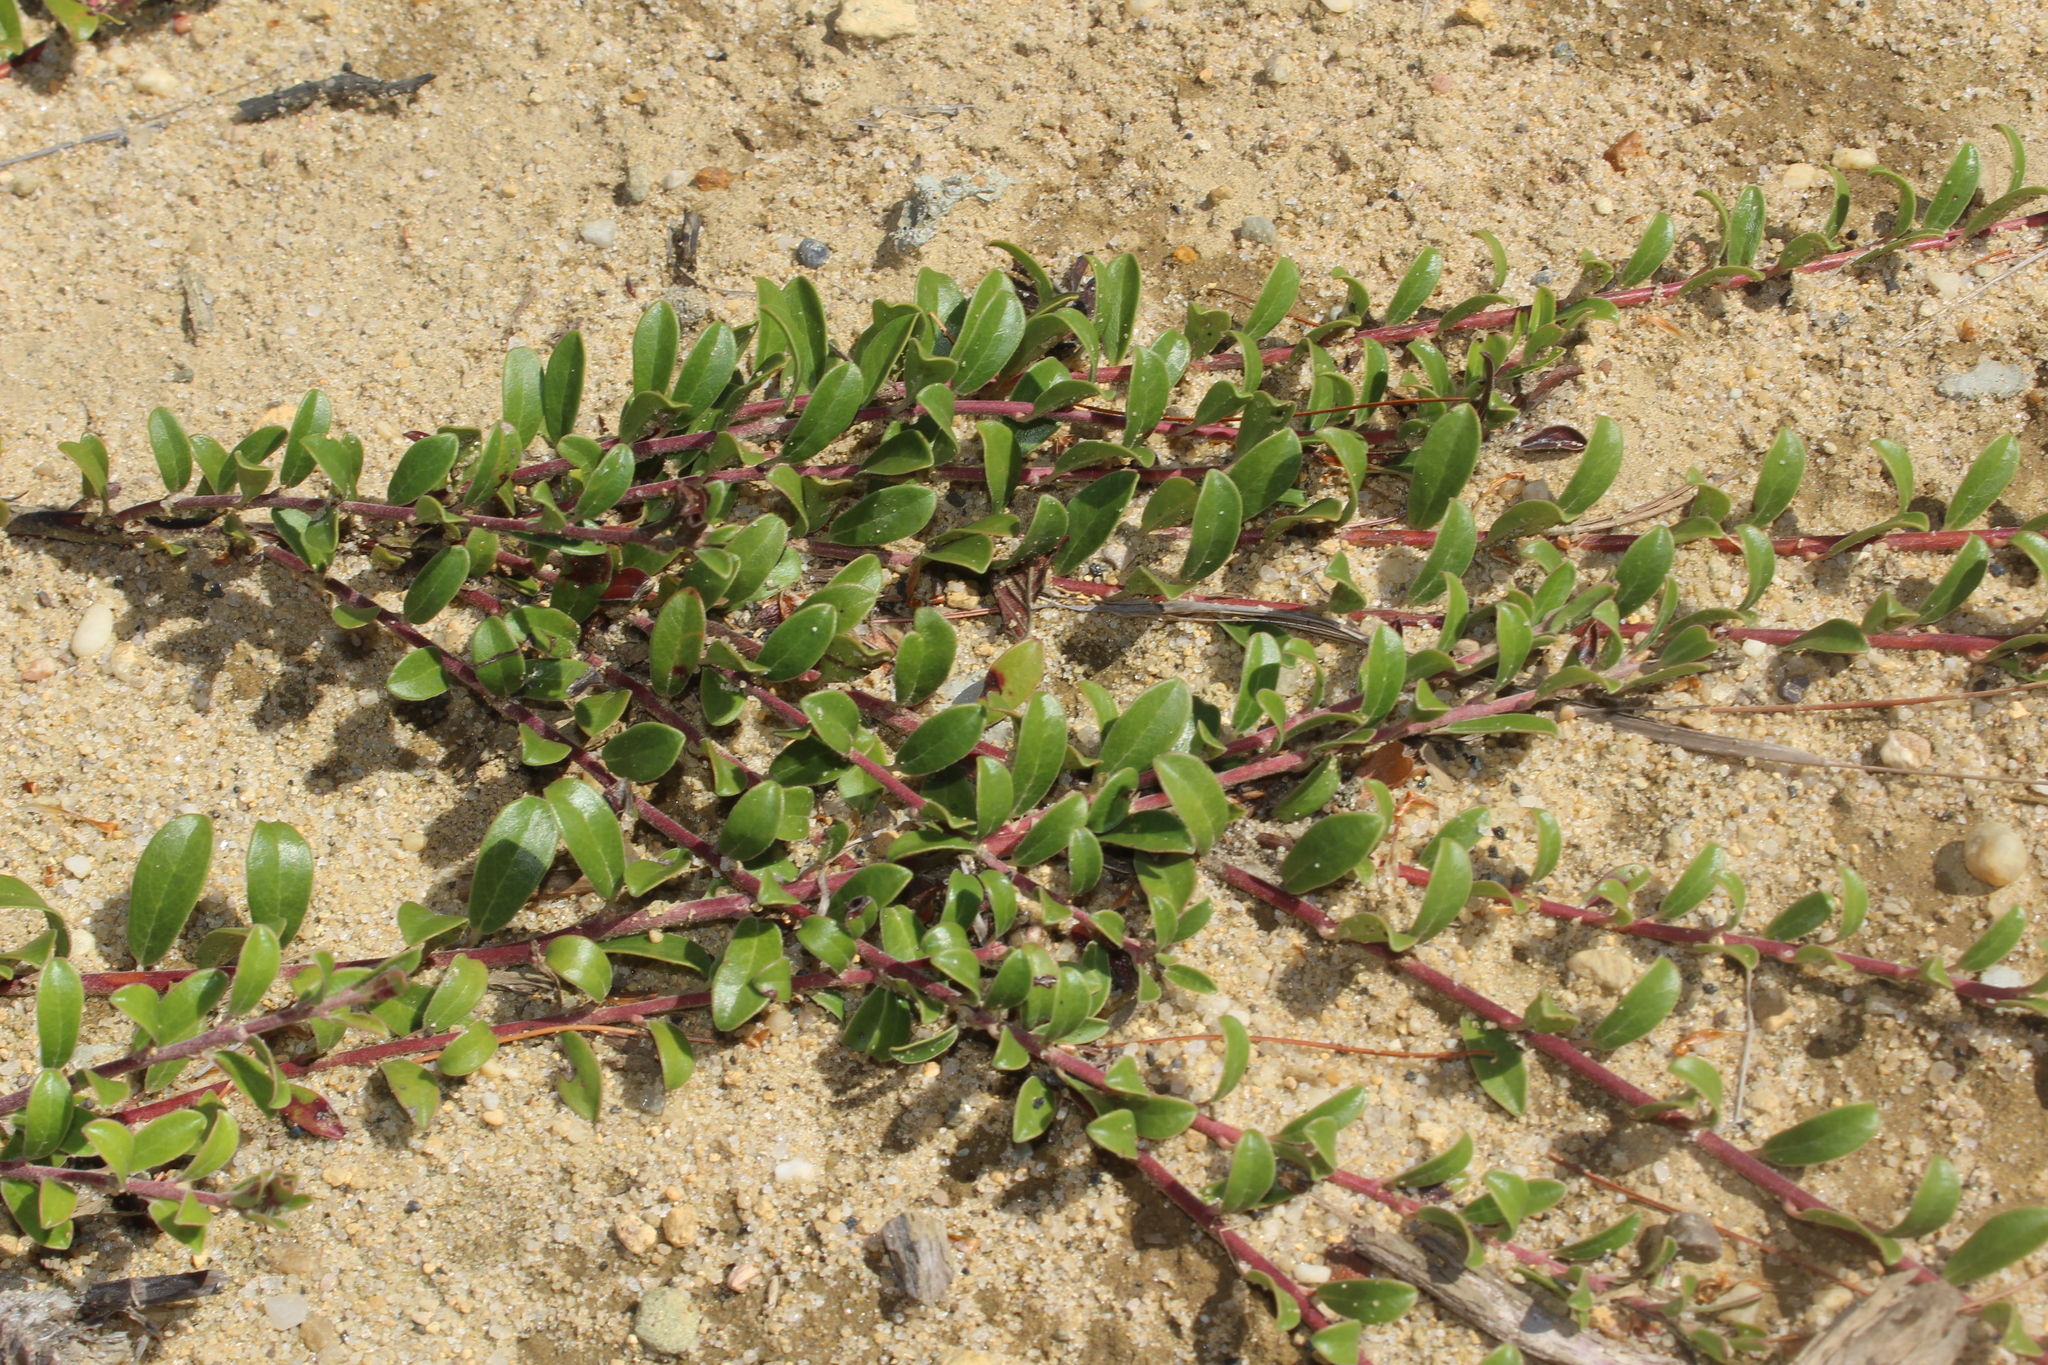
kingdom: Plantae
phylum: Tracheophyta
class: Magnoliopsida
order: Ericales
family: Ericaceae
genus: Arctostaphylos
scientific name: Arctostaphylos uva-ursi
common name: Bearberry
